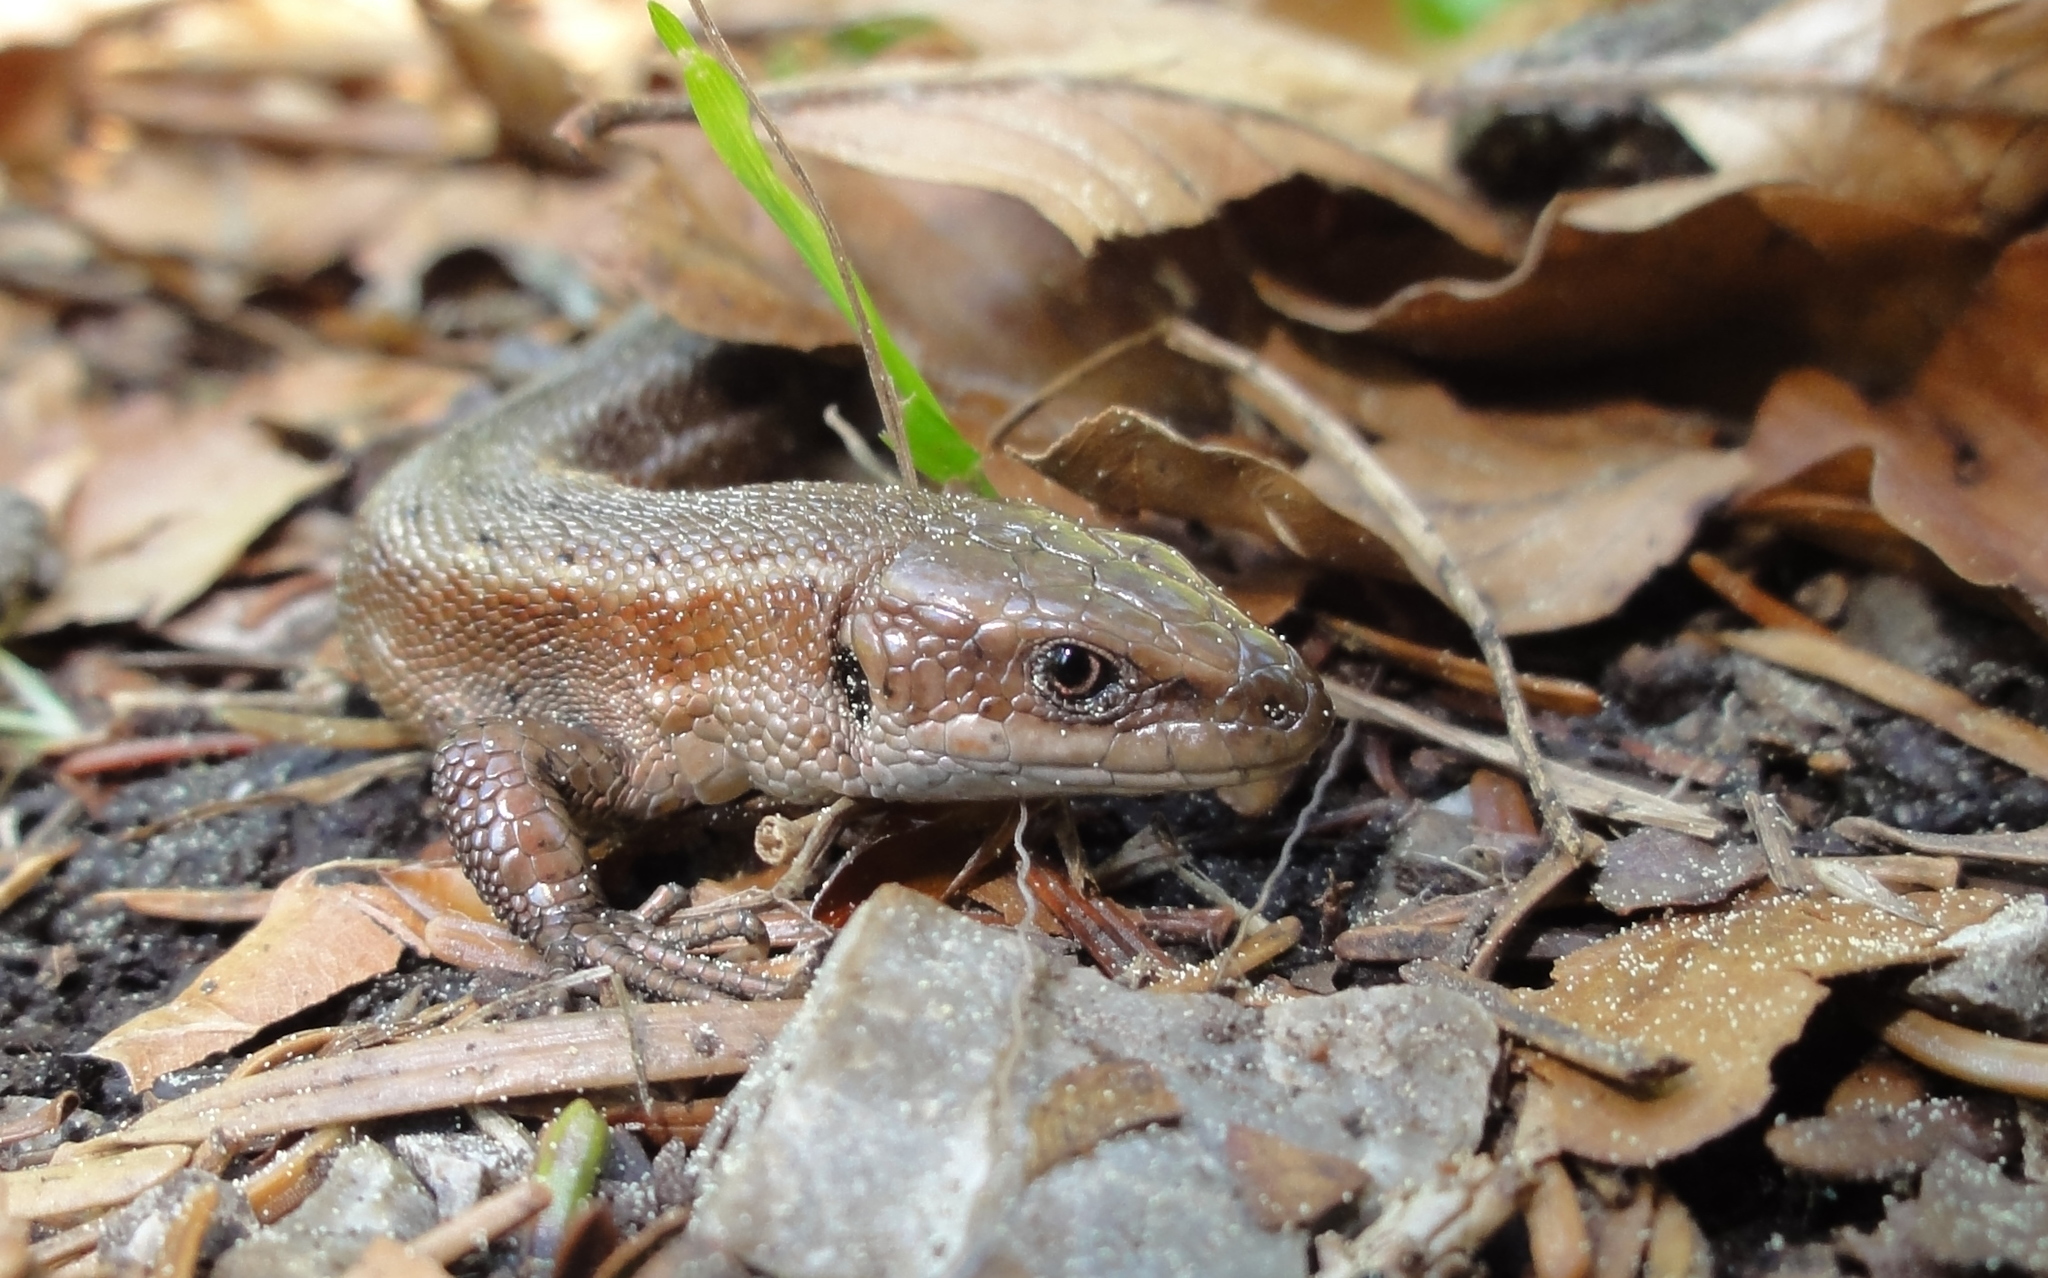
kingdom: Animalia
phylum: Chordata
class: Squamata
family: Lacertidae
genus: Zootoca
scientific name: Zootoca vivipara
